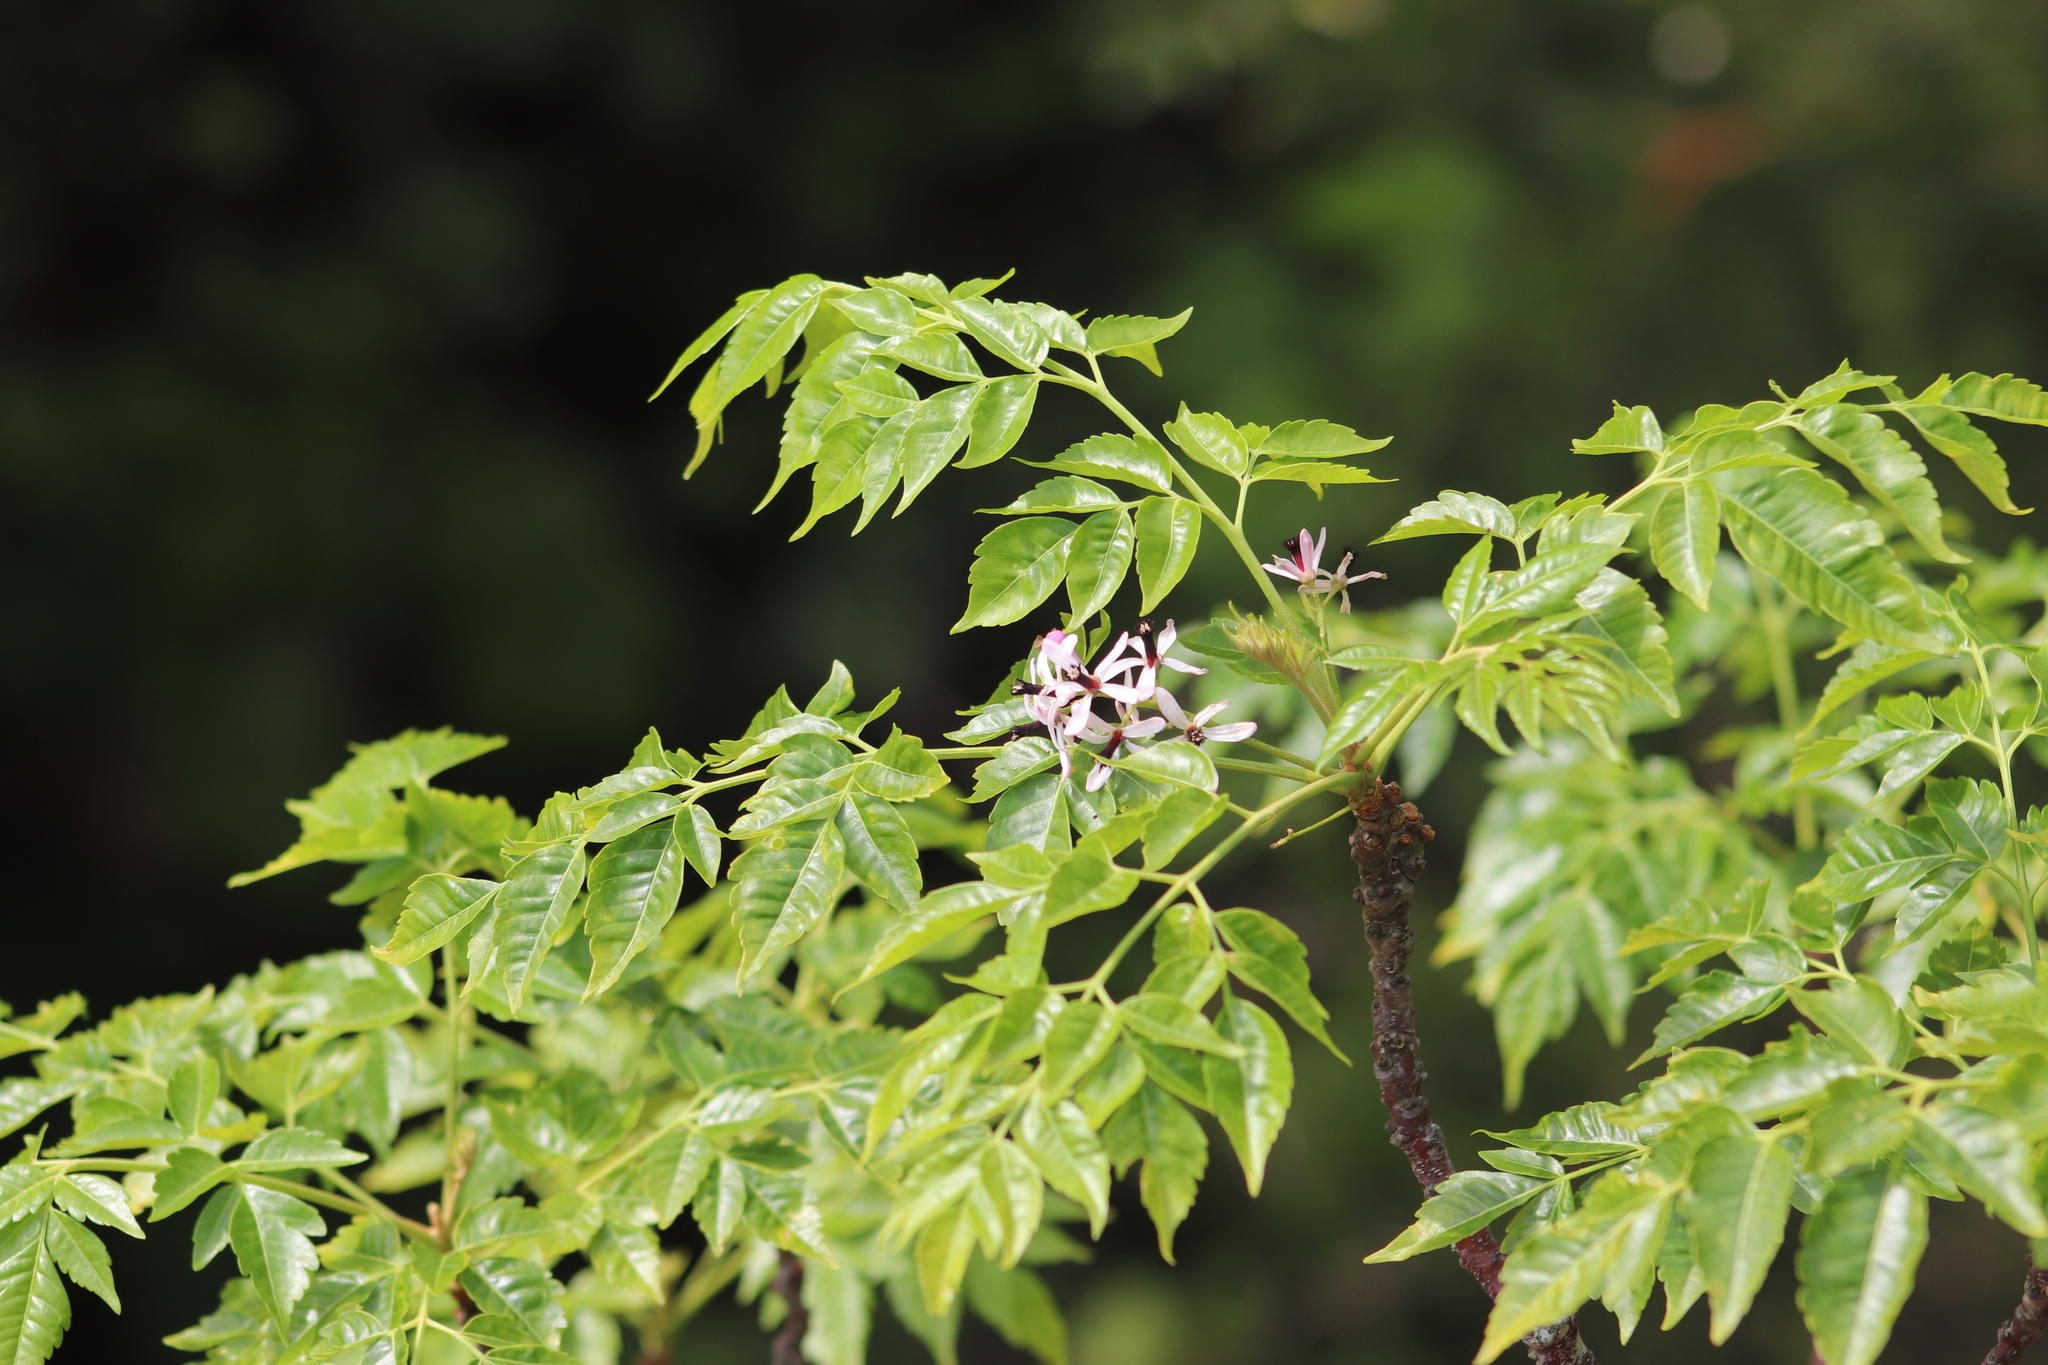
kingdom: Plantae
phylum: Tracheophyta
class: Magnoliopsida
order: Sapindales
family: Meliaceae
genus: Melia
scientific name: Melia azedarach
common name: Chinaberrytree
